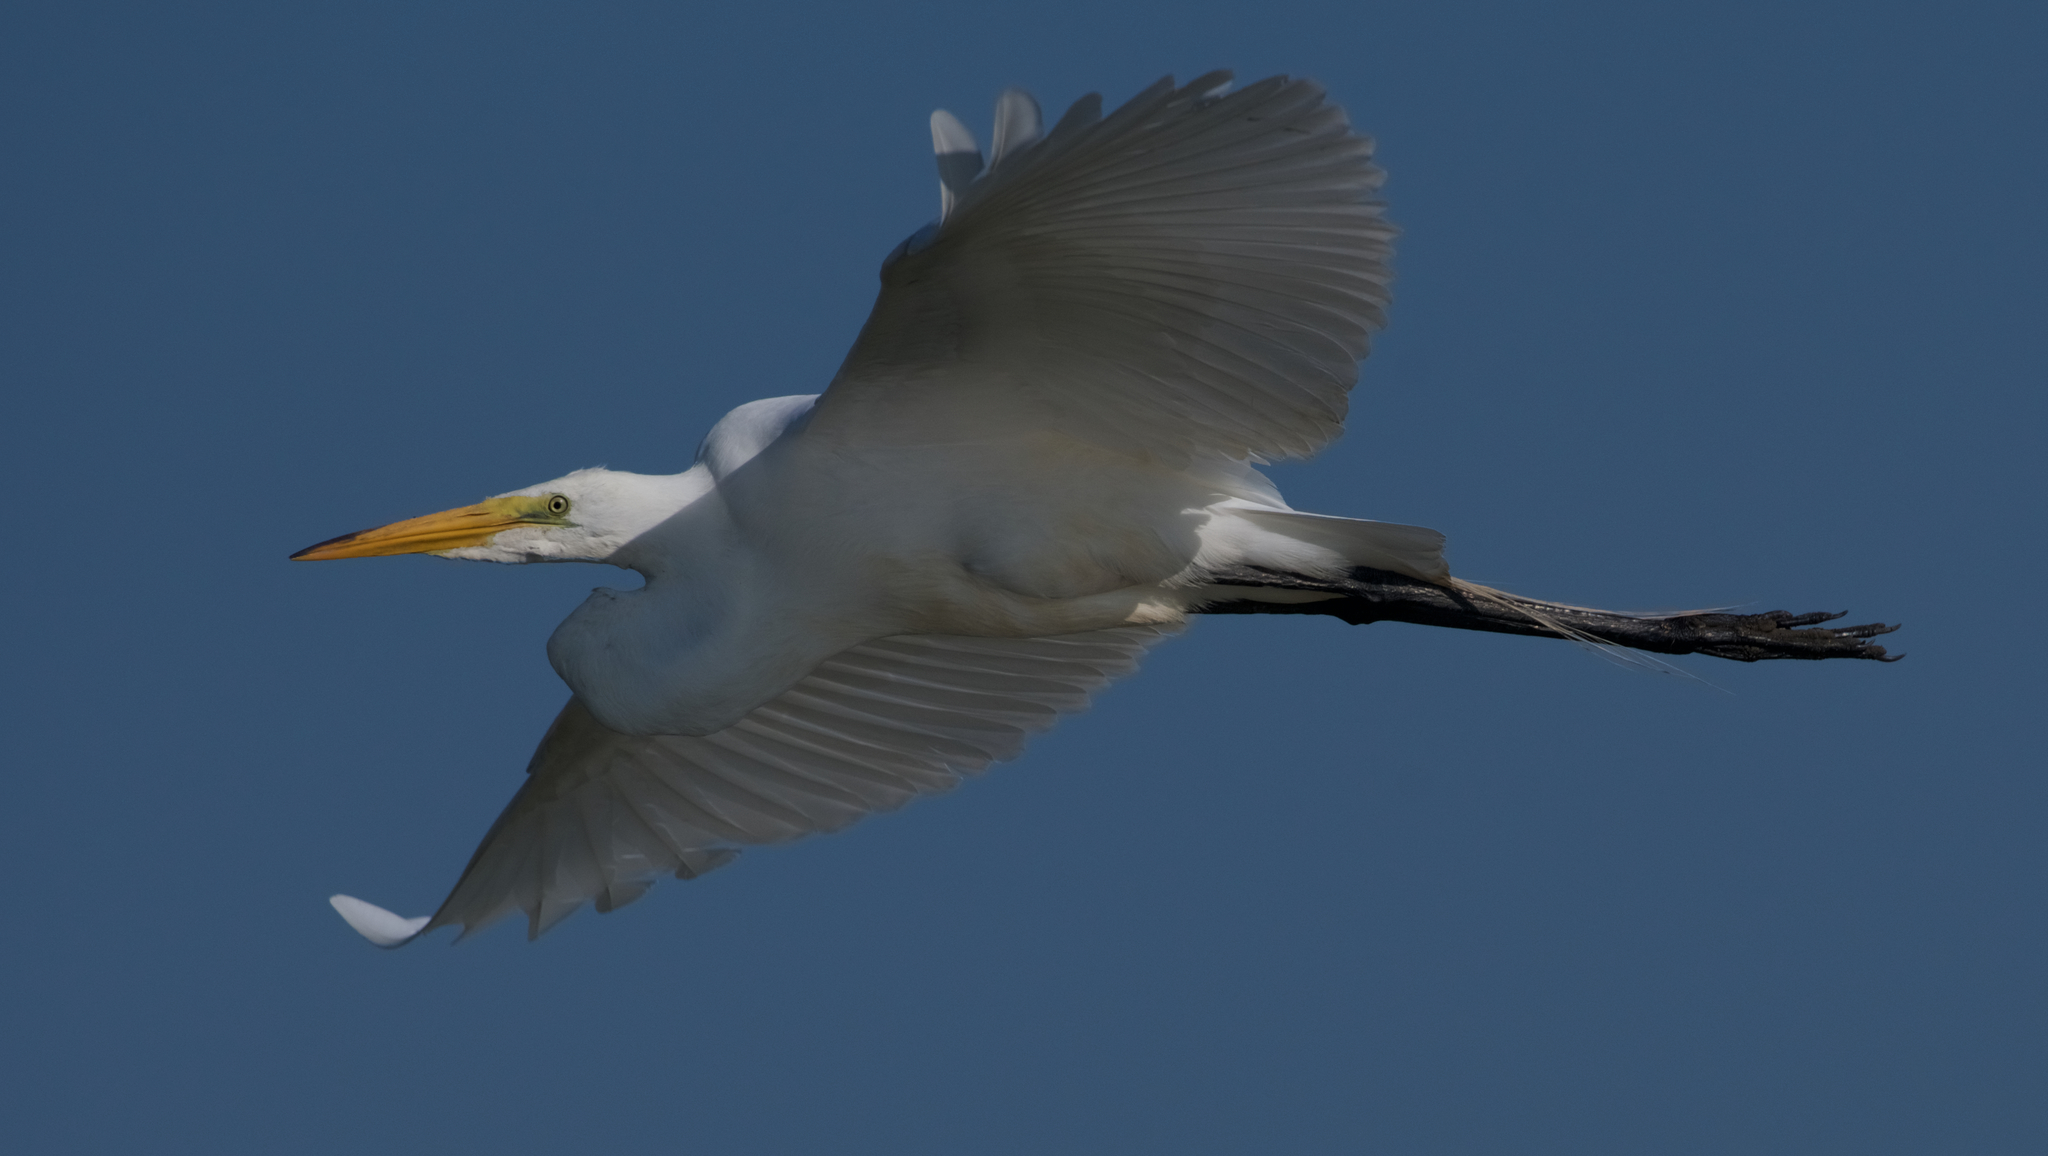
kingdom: Animalia
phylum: Chordata
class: Aves
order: Pelecaniformes
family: Ardeidae
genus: Ardea
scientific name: Ardea alba
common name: Great egret
